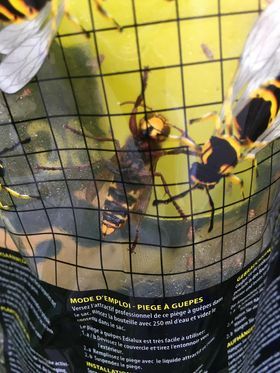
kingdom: Animalia
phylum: Arthropoda
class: Insecta
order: Hymenoptera
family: Vespidae
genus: Vespa
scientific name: Vespa crabro
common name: Hornet
